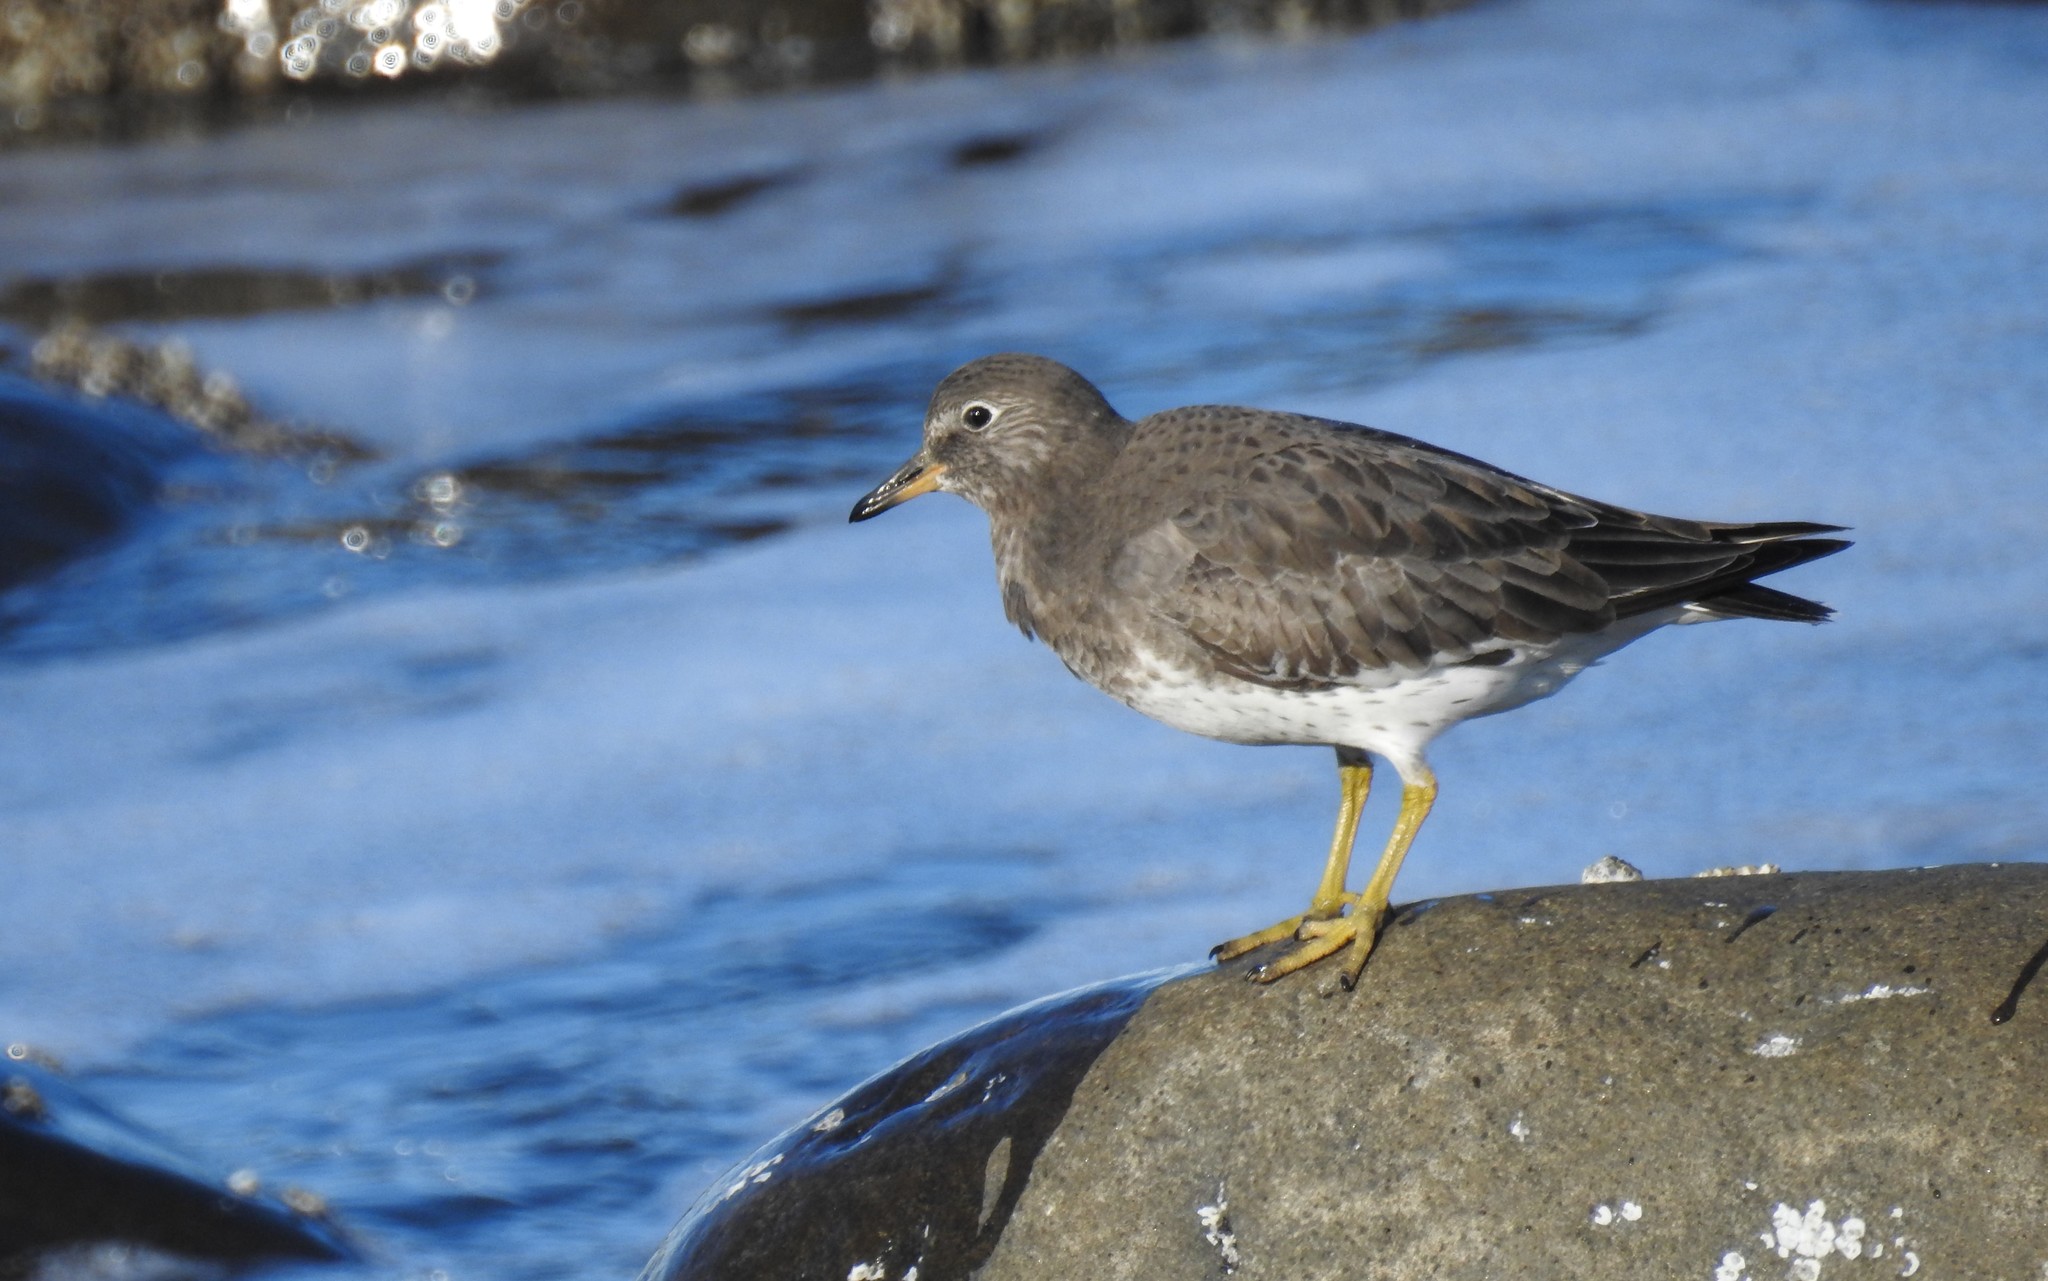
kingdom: Animalia
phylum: Chordata
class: Aves
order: Charadriiformes
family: Scolopacidae
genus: Calidris
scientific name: Calidris virgata
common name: Surfbird
